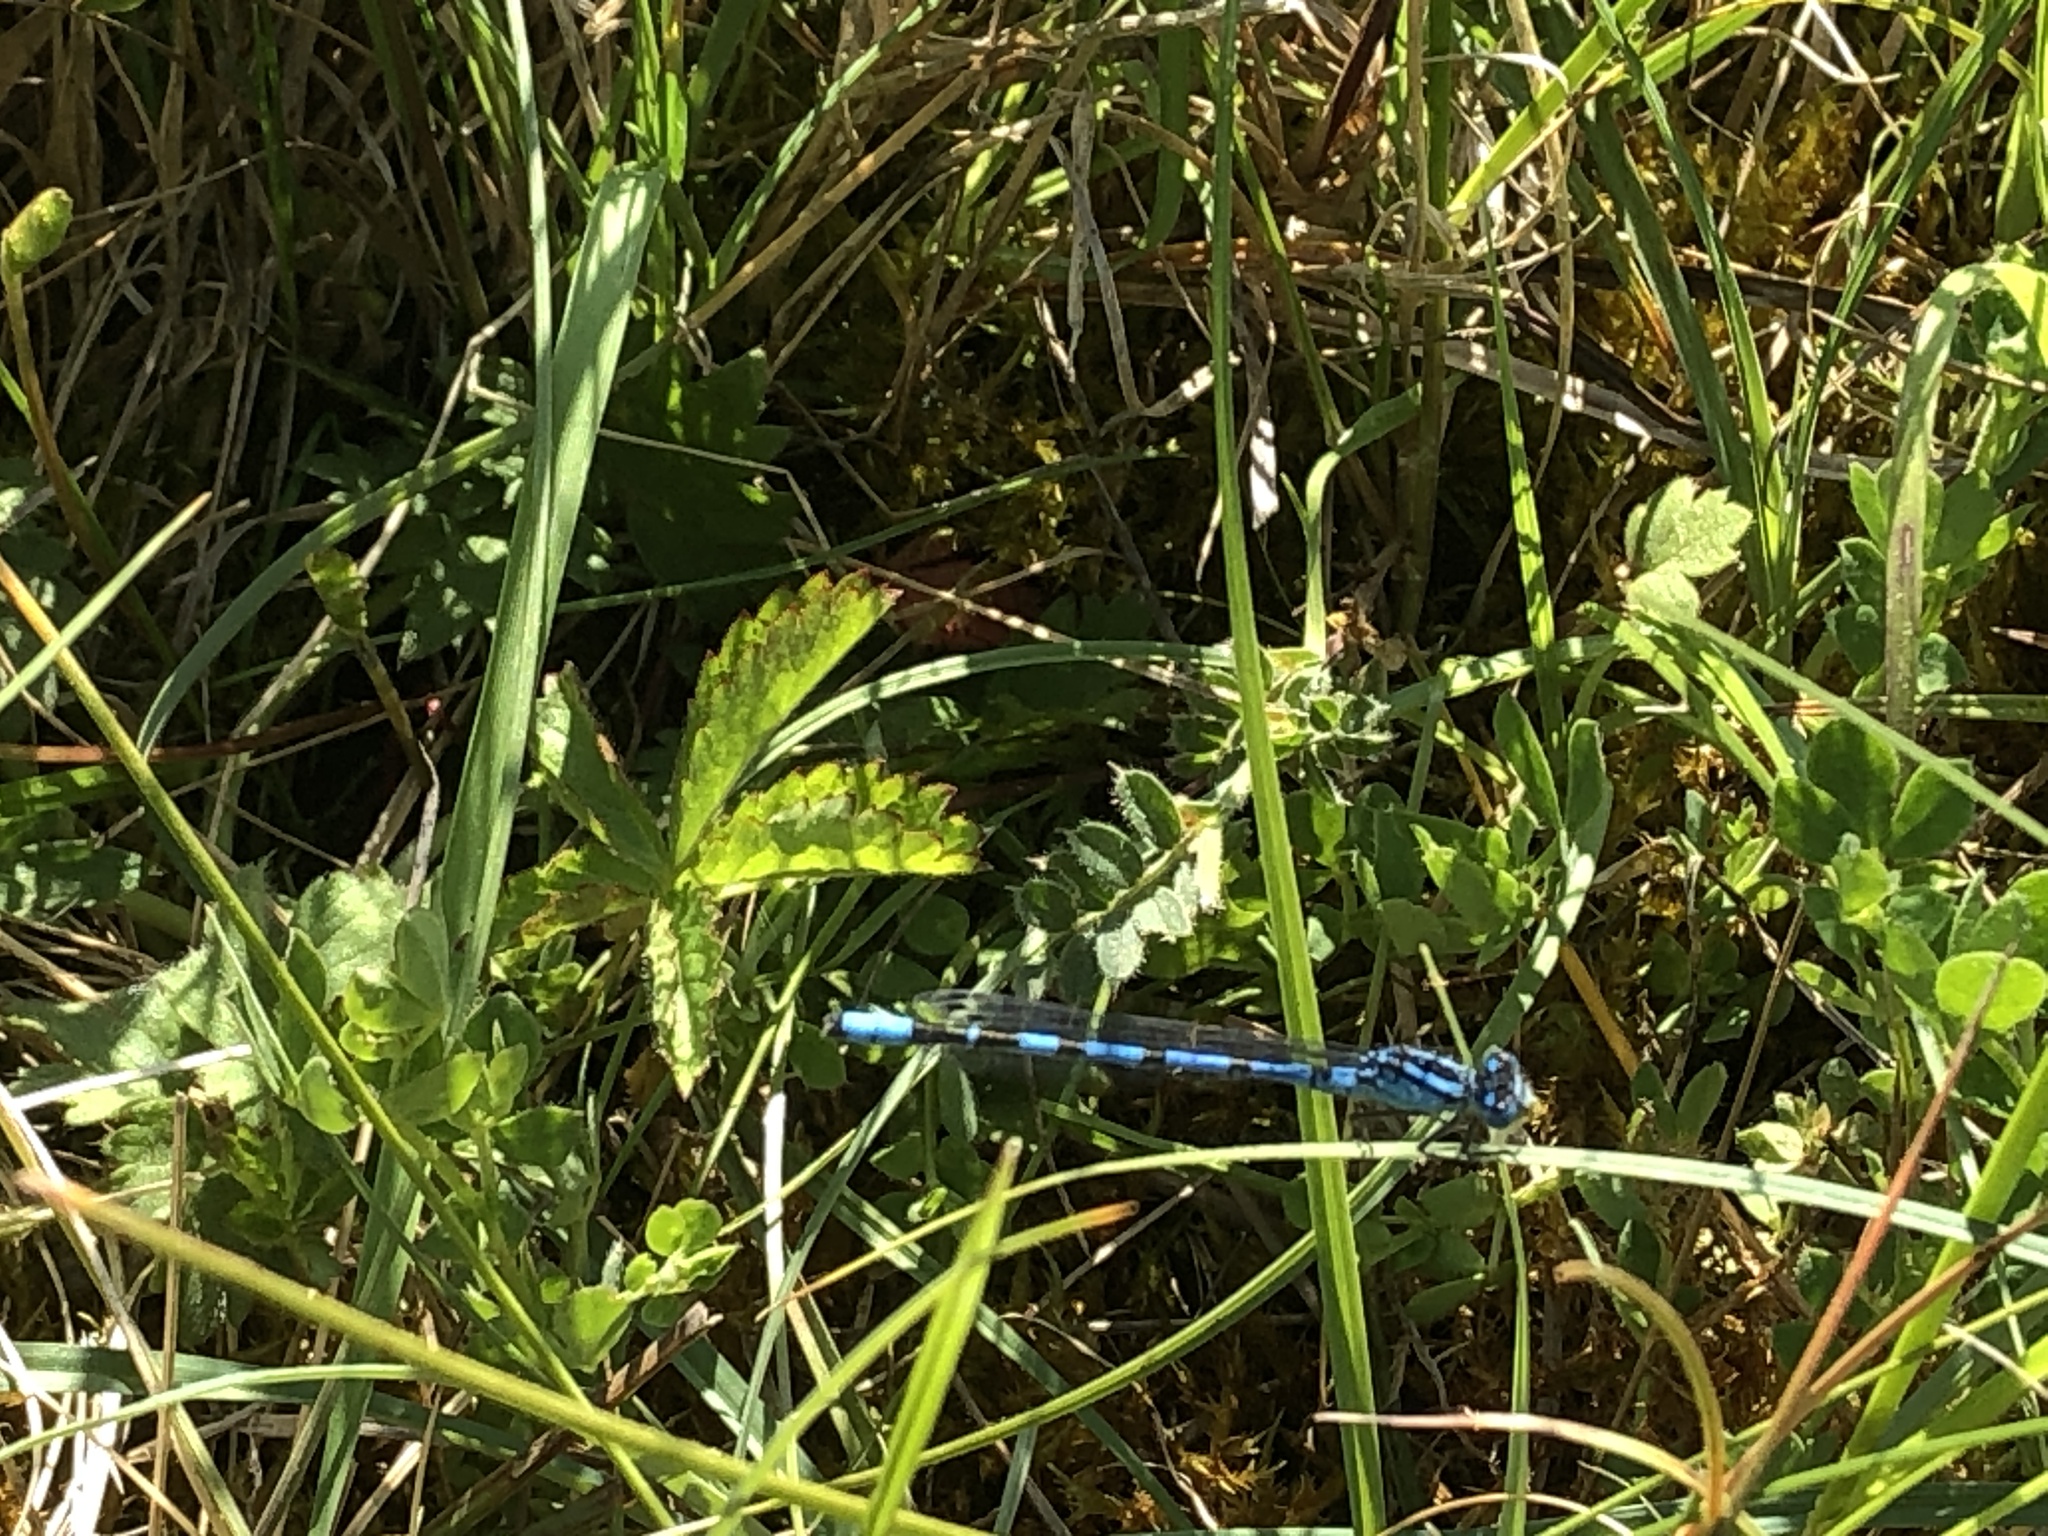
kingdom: Animalia
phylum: Arthropoda
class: Insecta
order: Odonata
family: Coenagrionidae
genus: Enallagma
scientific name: Enallagma cyathigerum
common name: Common blue damselfly
